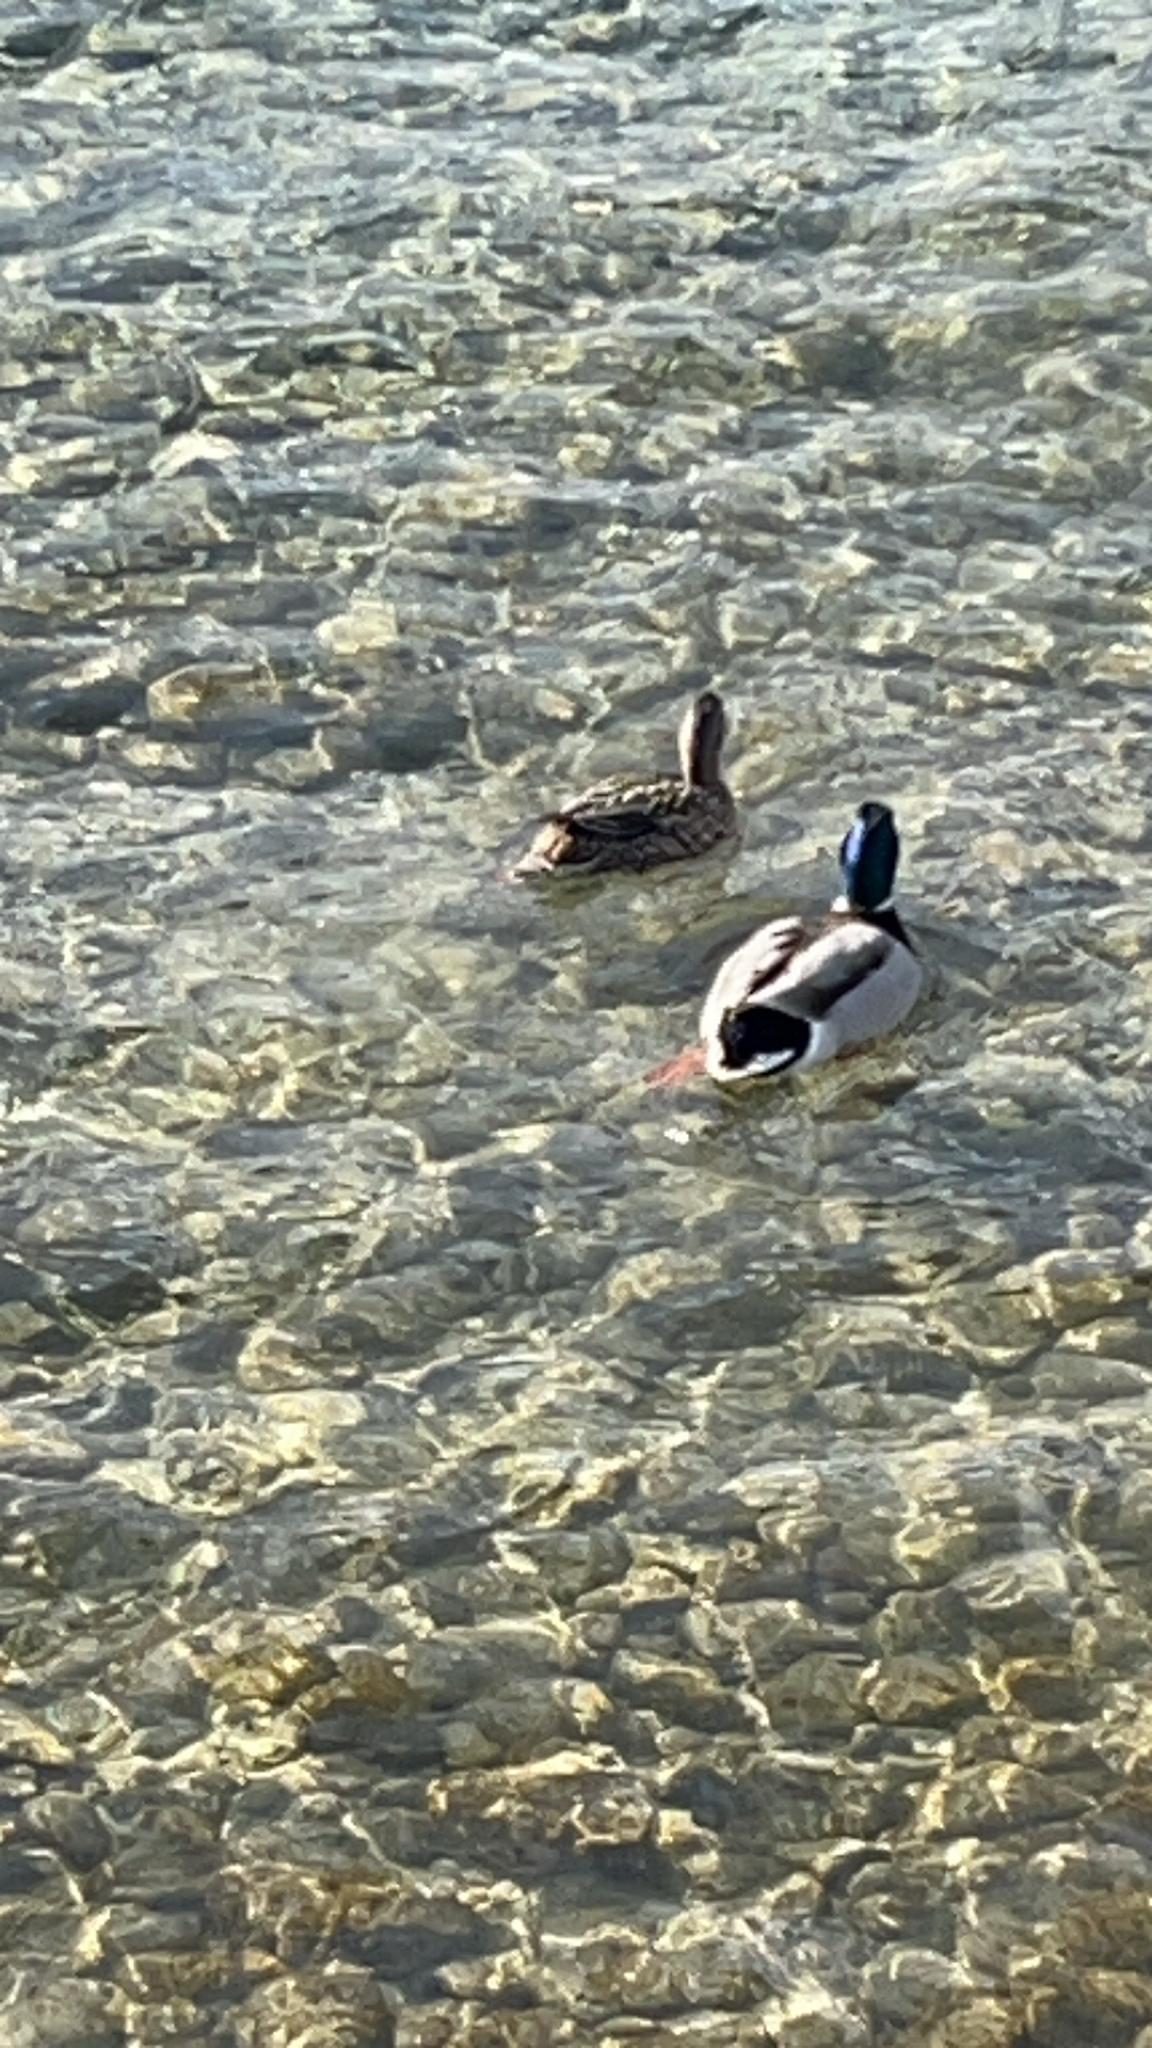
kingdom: Animalia
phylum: Chordata
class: Aves
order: Anseriformes
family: Anatidae
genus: Anas
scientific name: Anas platyrhynchos
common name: Mallard
